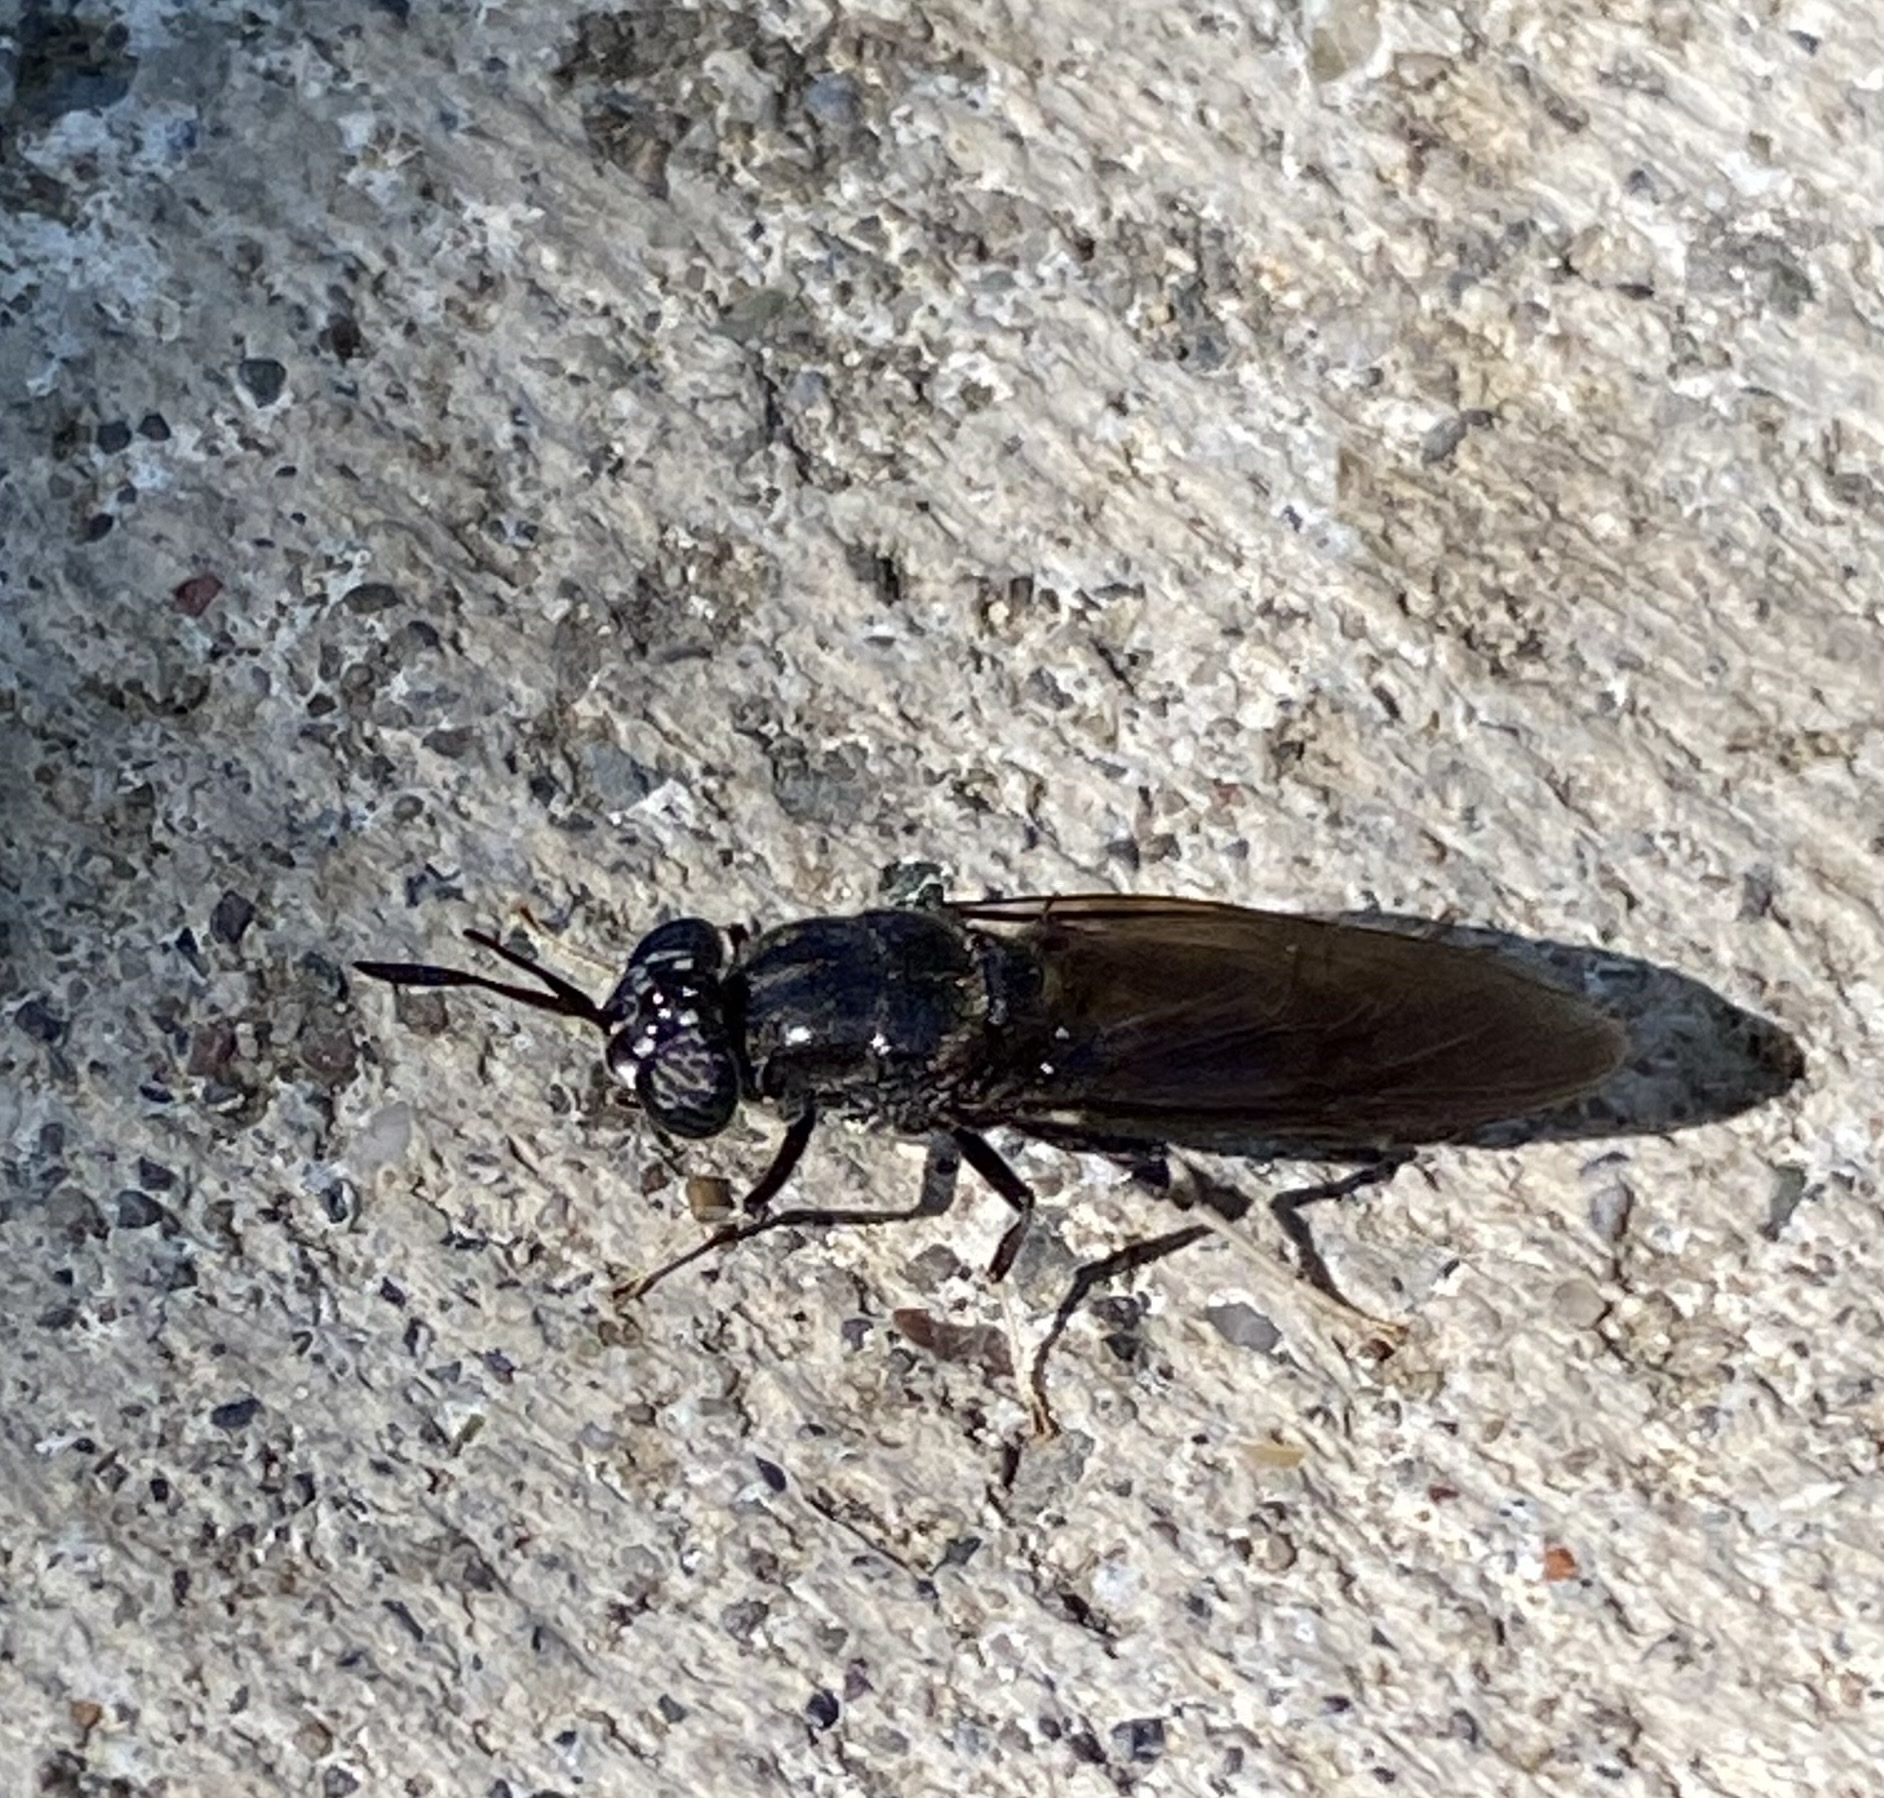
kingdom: Animalia
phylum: Arthropoda
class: Insecta
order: Diptera
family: Stratiomyidae
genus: Hermetia
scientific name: Hermetia illucens
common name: Black soldier fly
